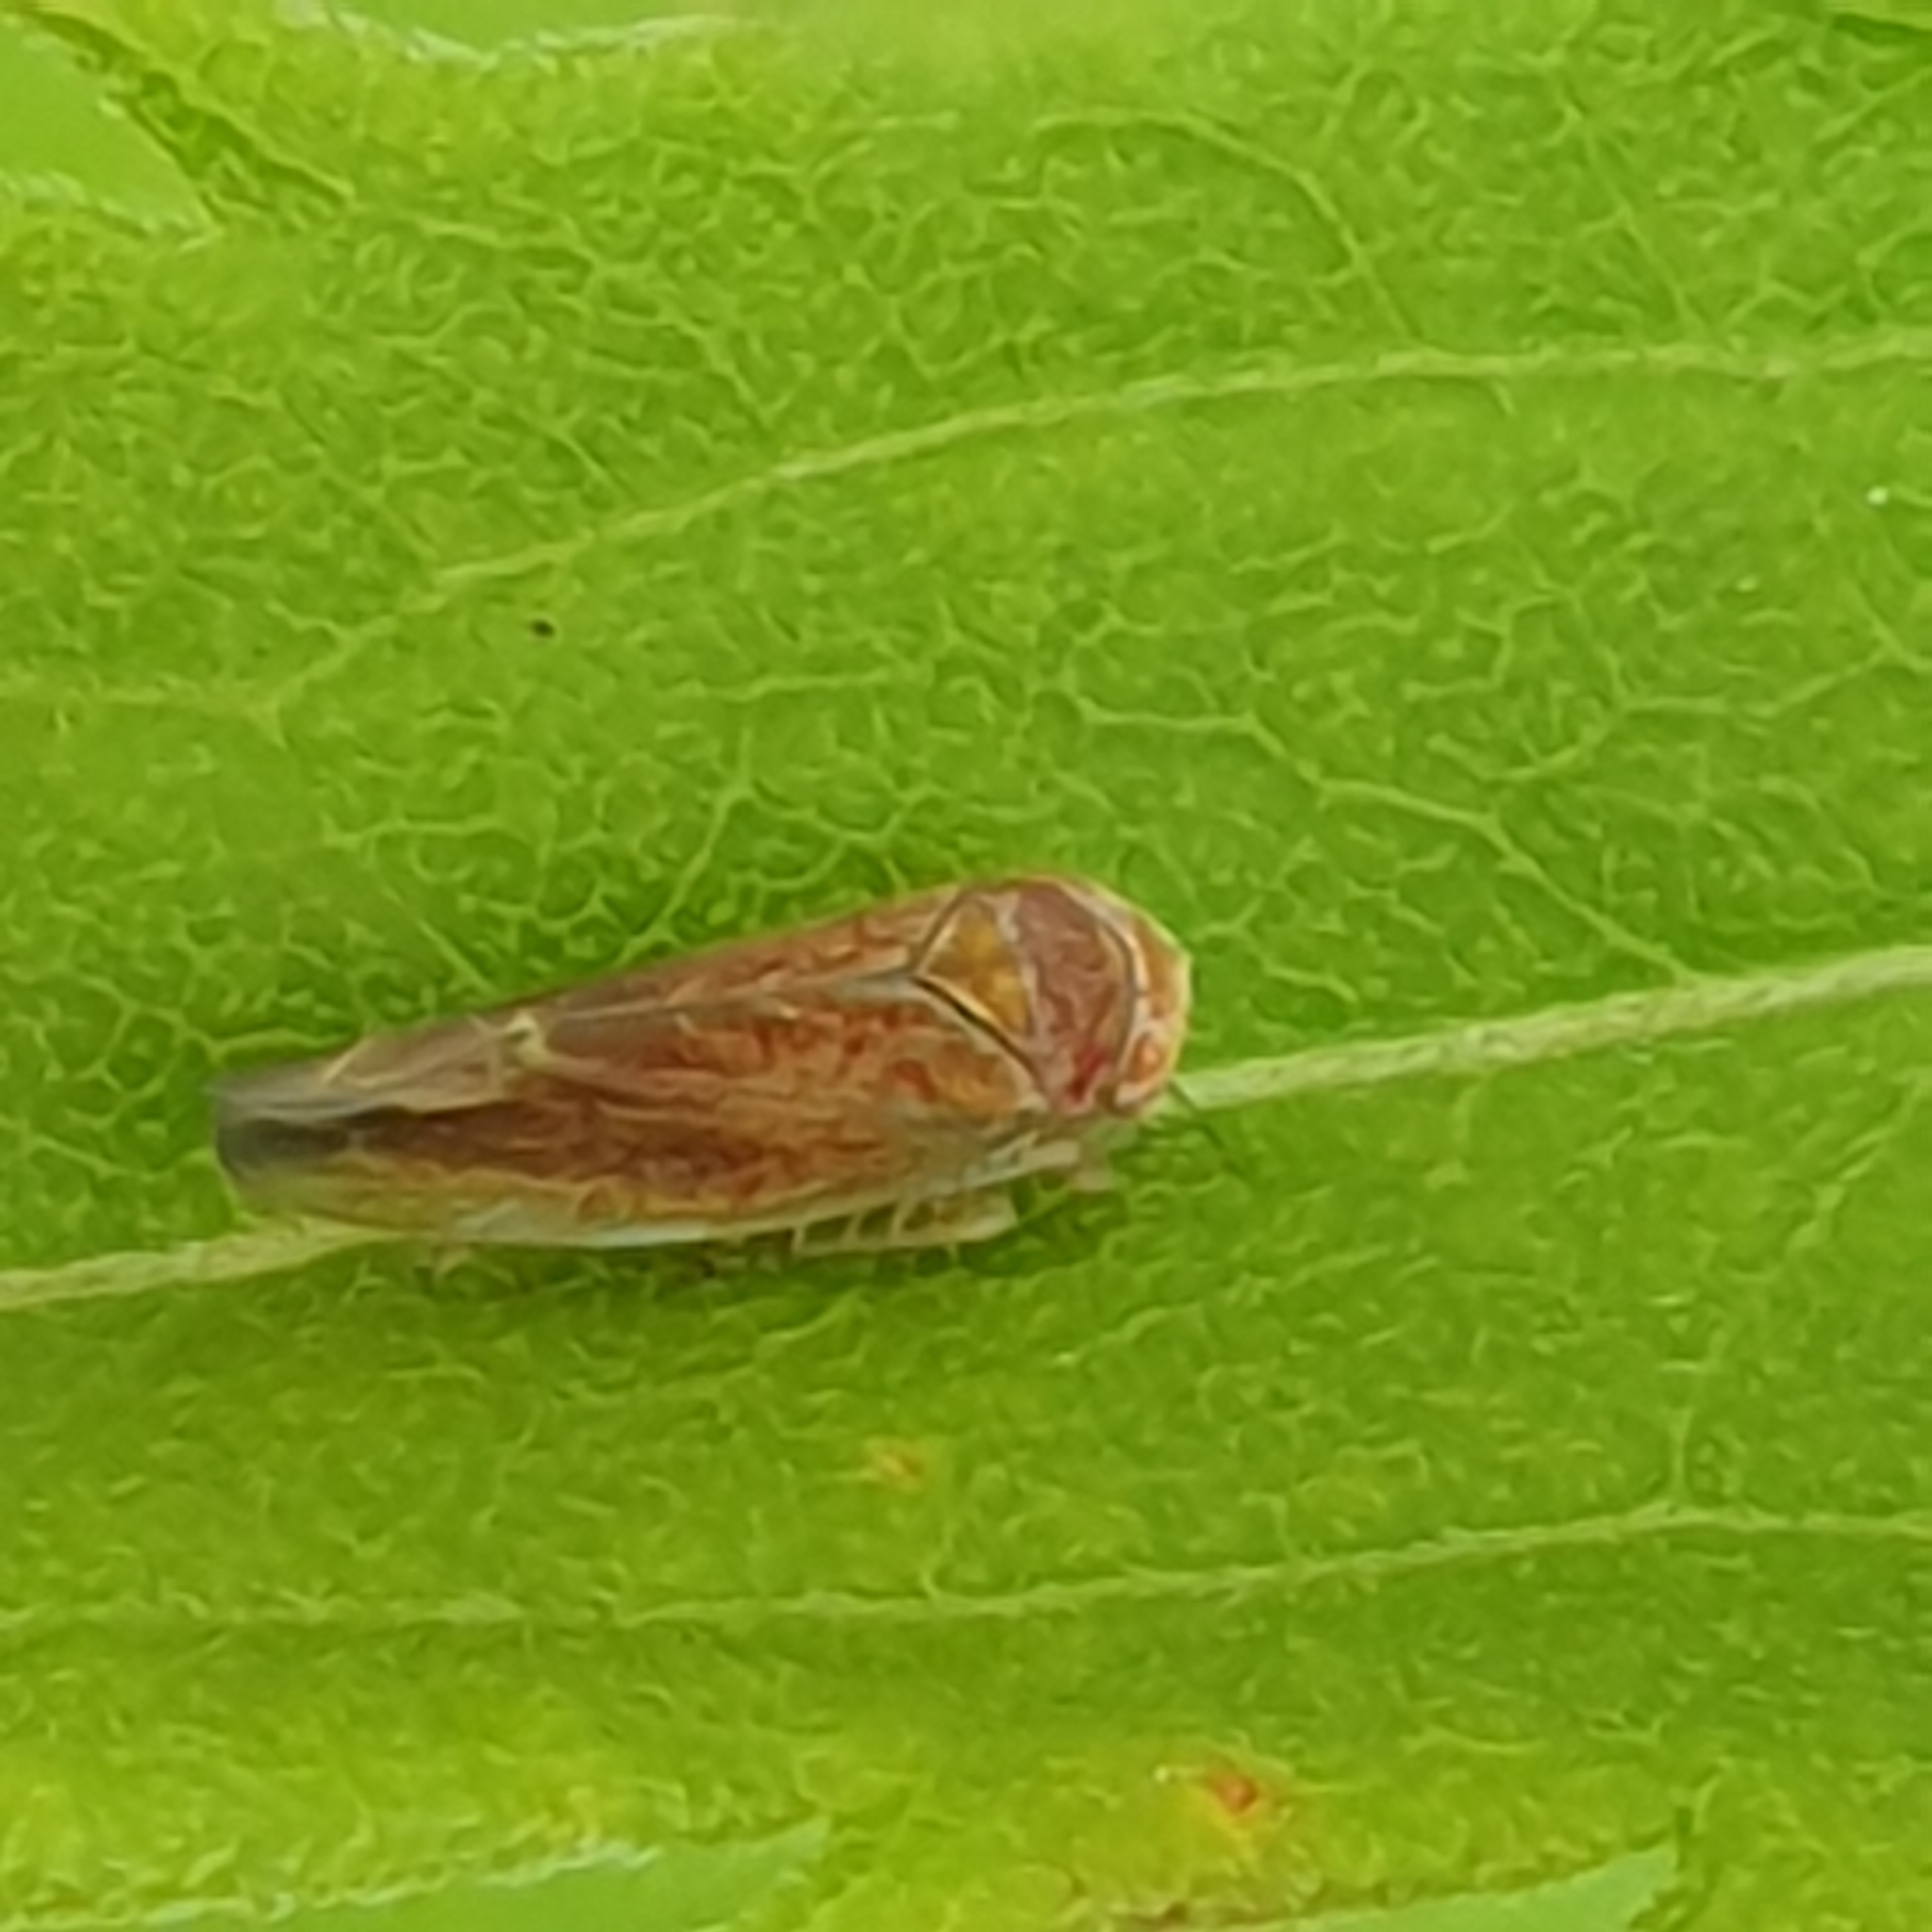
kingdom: Animalia
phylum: Arthropoda
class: Insecta
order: Hemiptera
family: Cicadellidae
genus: Idiodonus
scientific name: Idiodonus cruentatus
